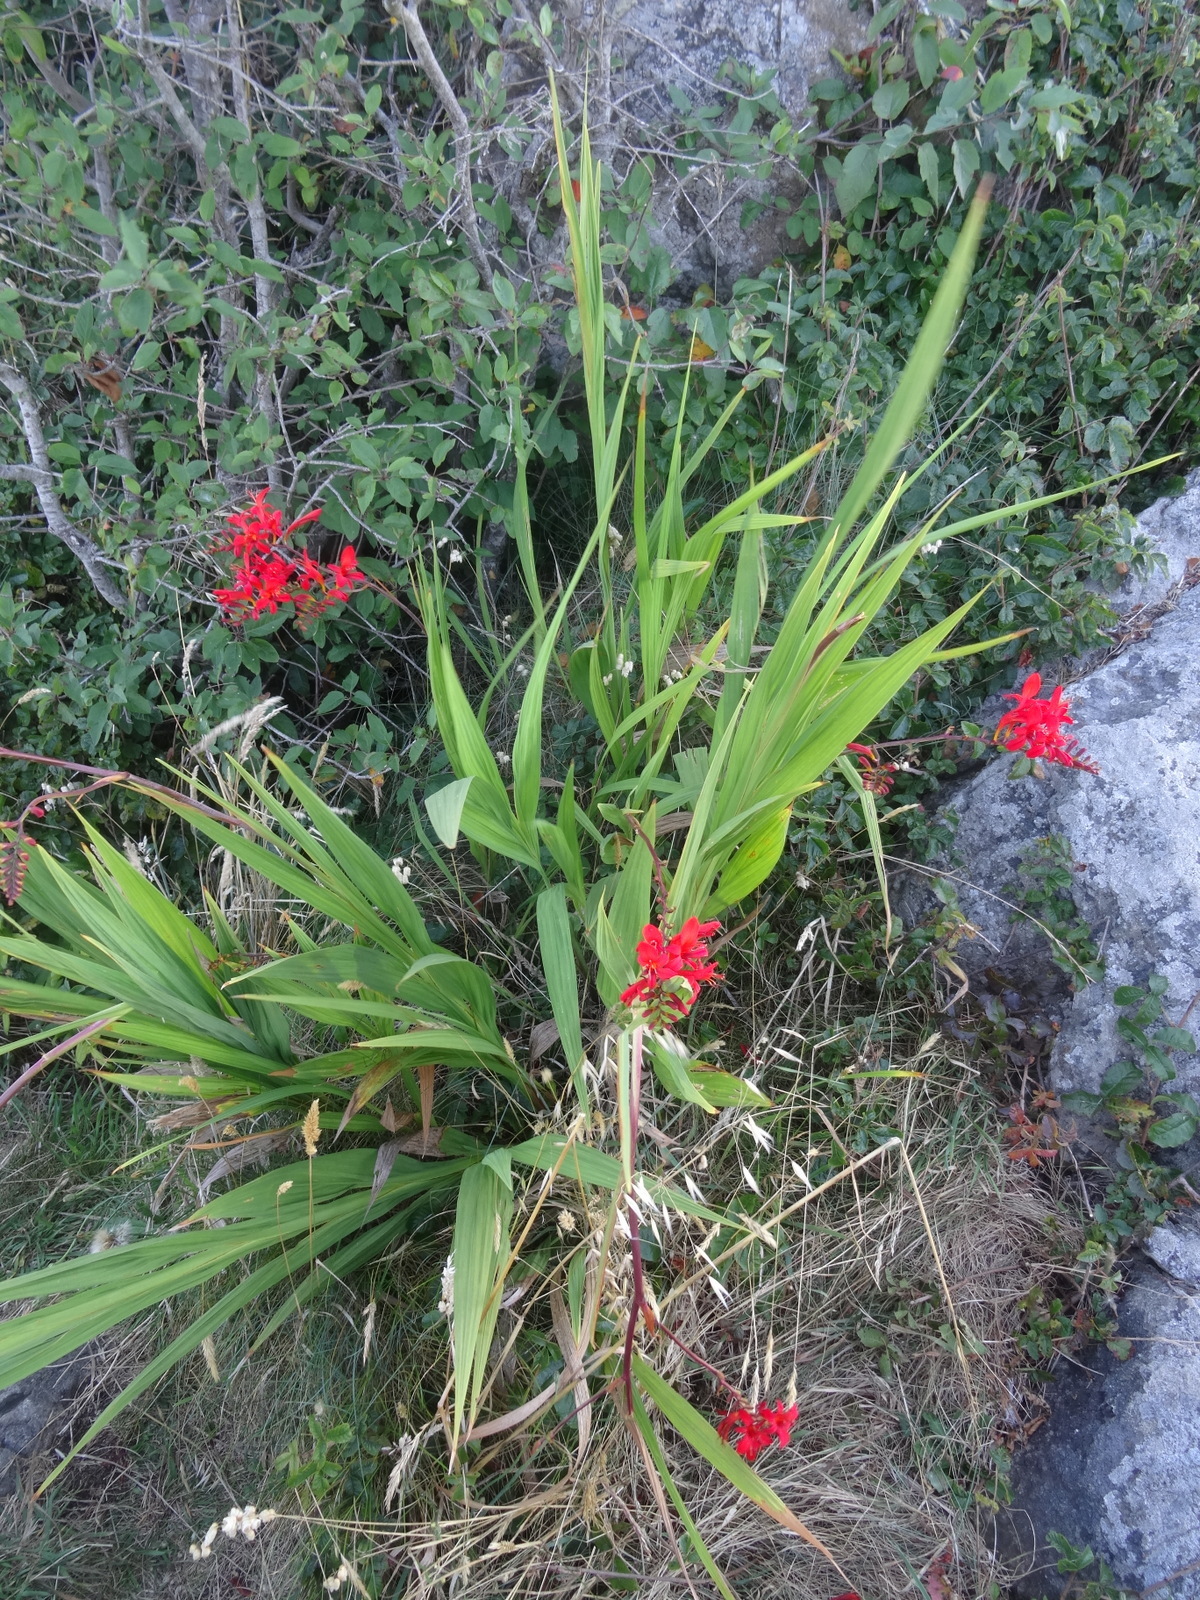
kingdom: Plantae
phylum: Tracheophyta
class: Liliopsida
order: Asparagales
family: Iridaceae
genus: Crocosmia
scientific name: Crocosmia
